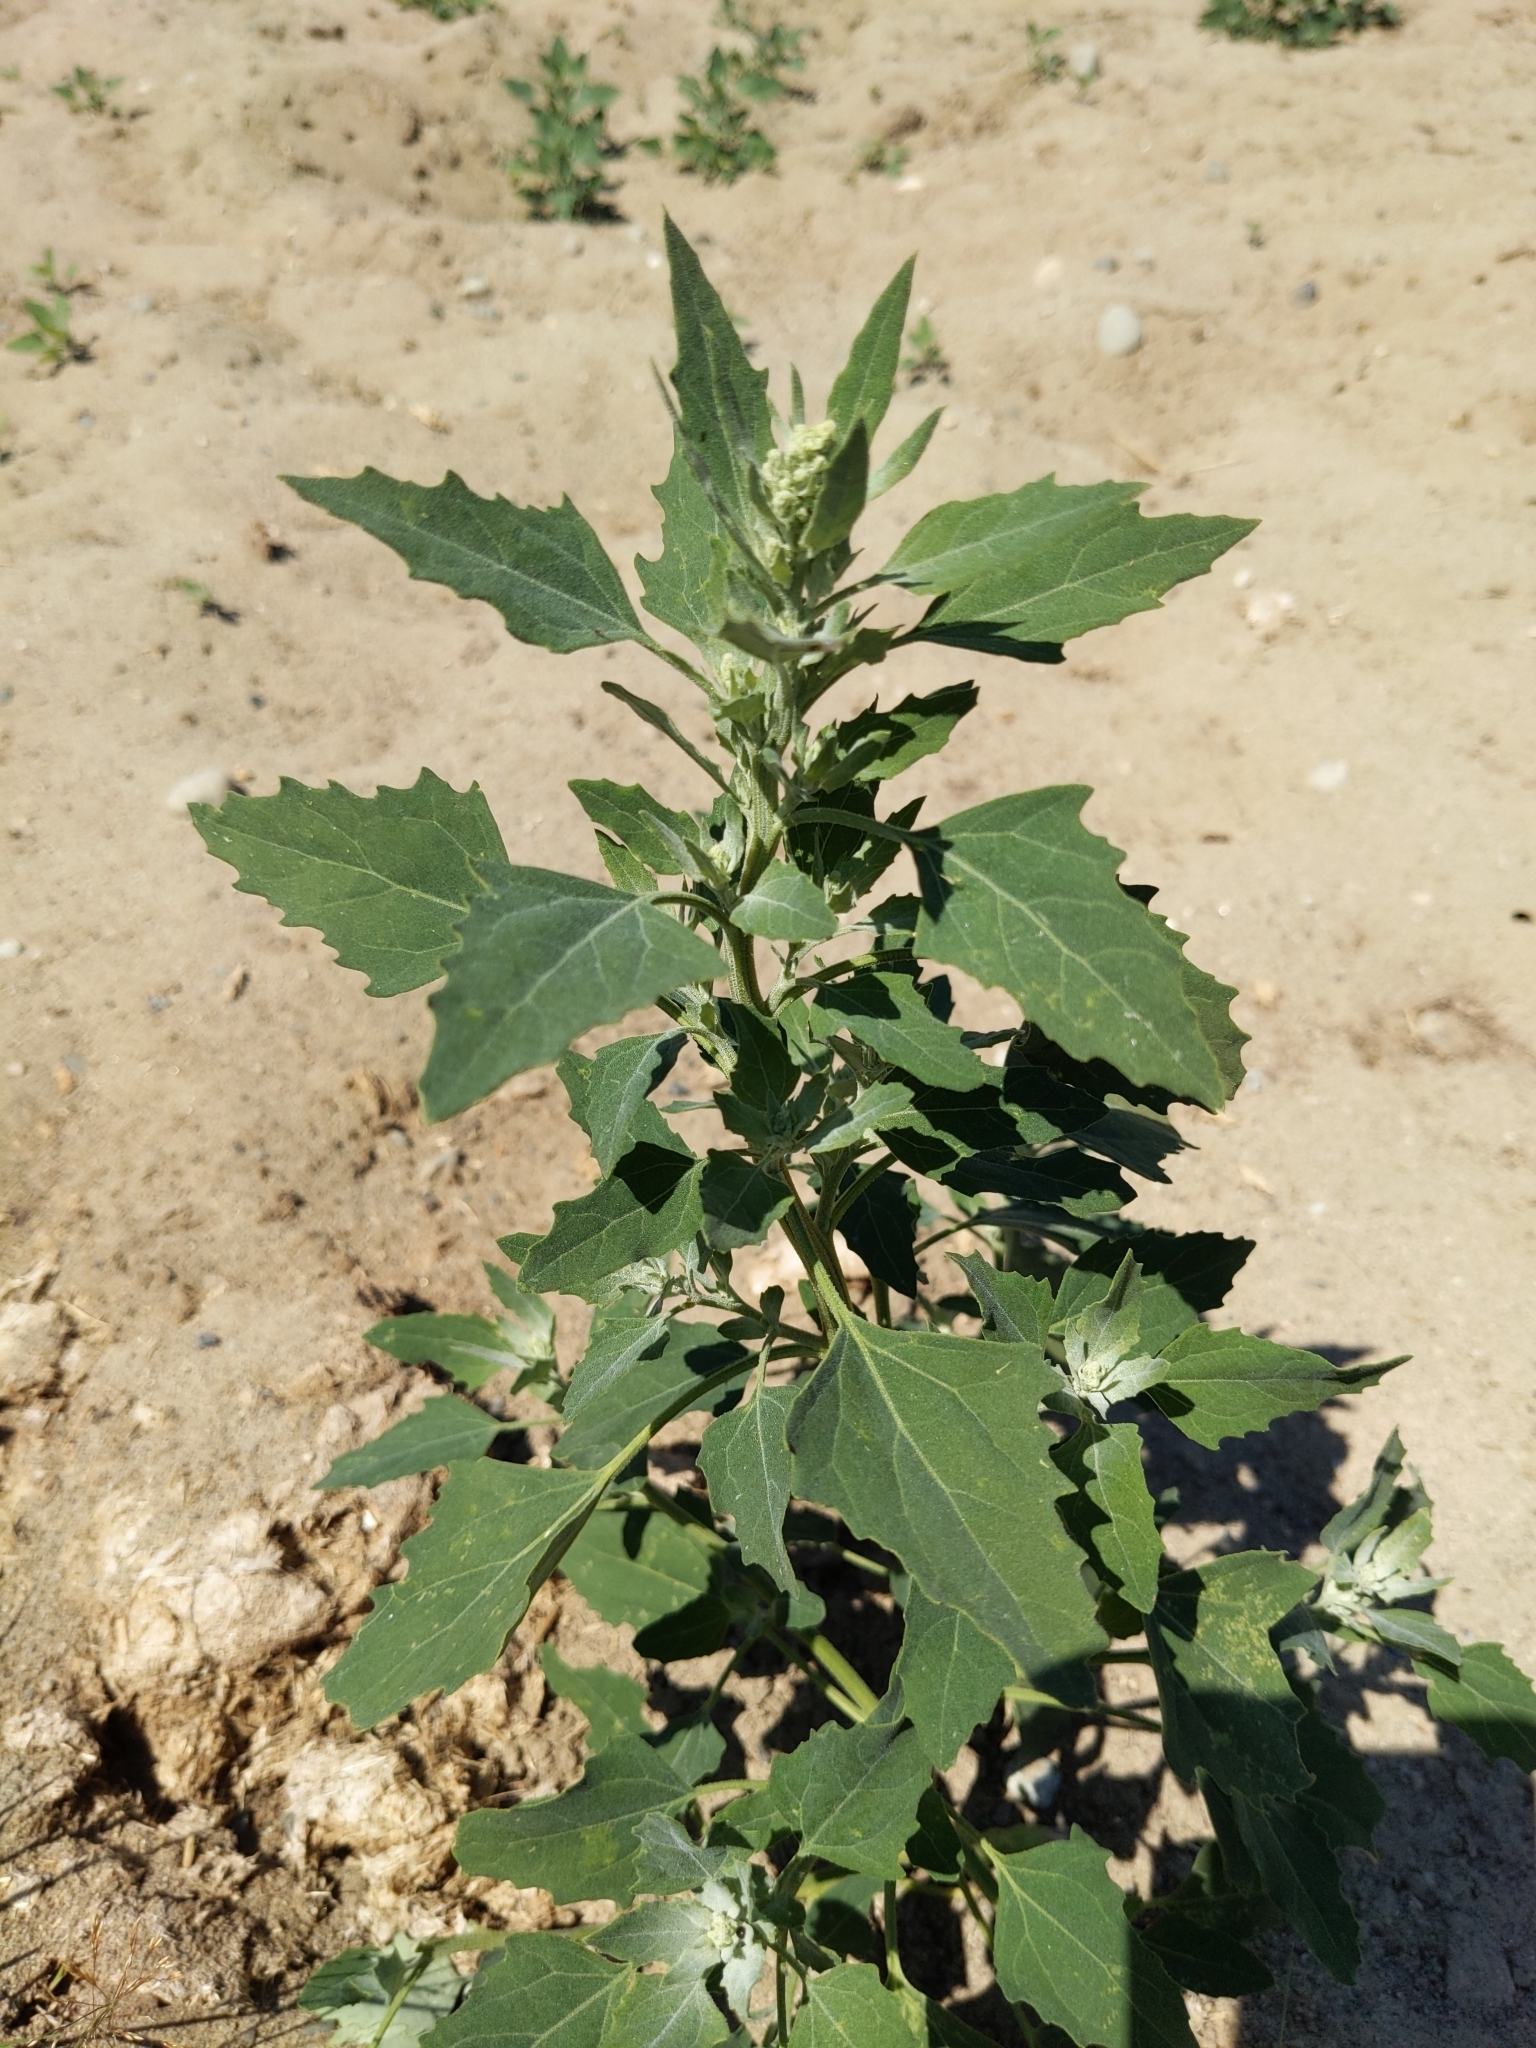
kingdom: Plantae
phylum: Tracheophyta
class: Magnoliopsida
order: Caryophyllales
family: Amaranthaceae
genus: Chenopodium
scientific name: Chenopodium album
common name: Fat-hen
